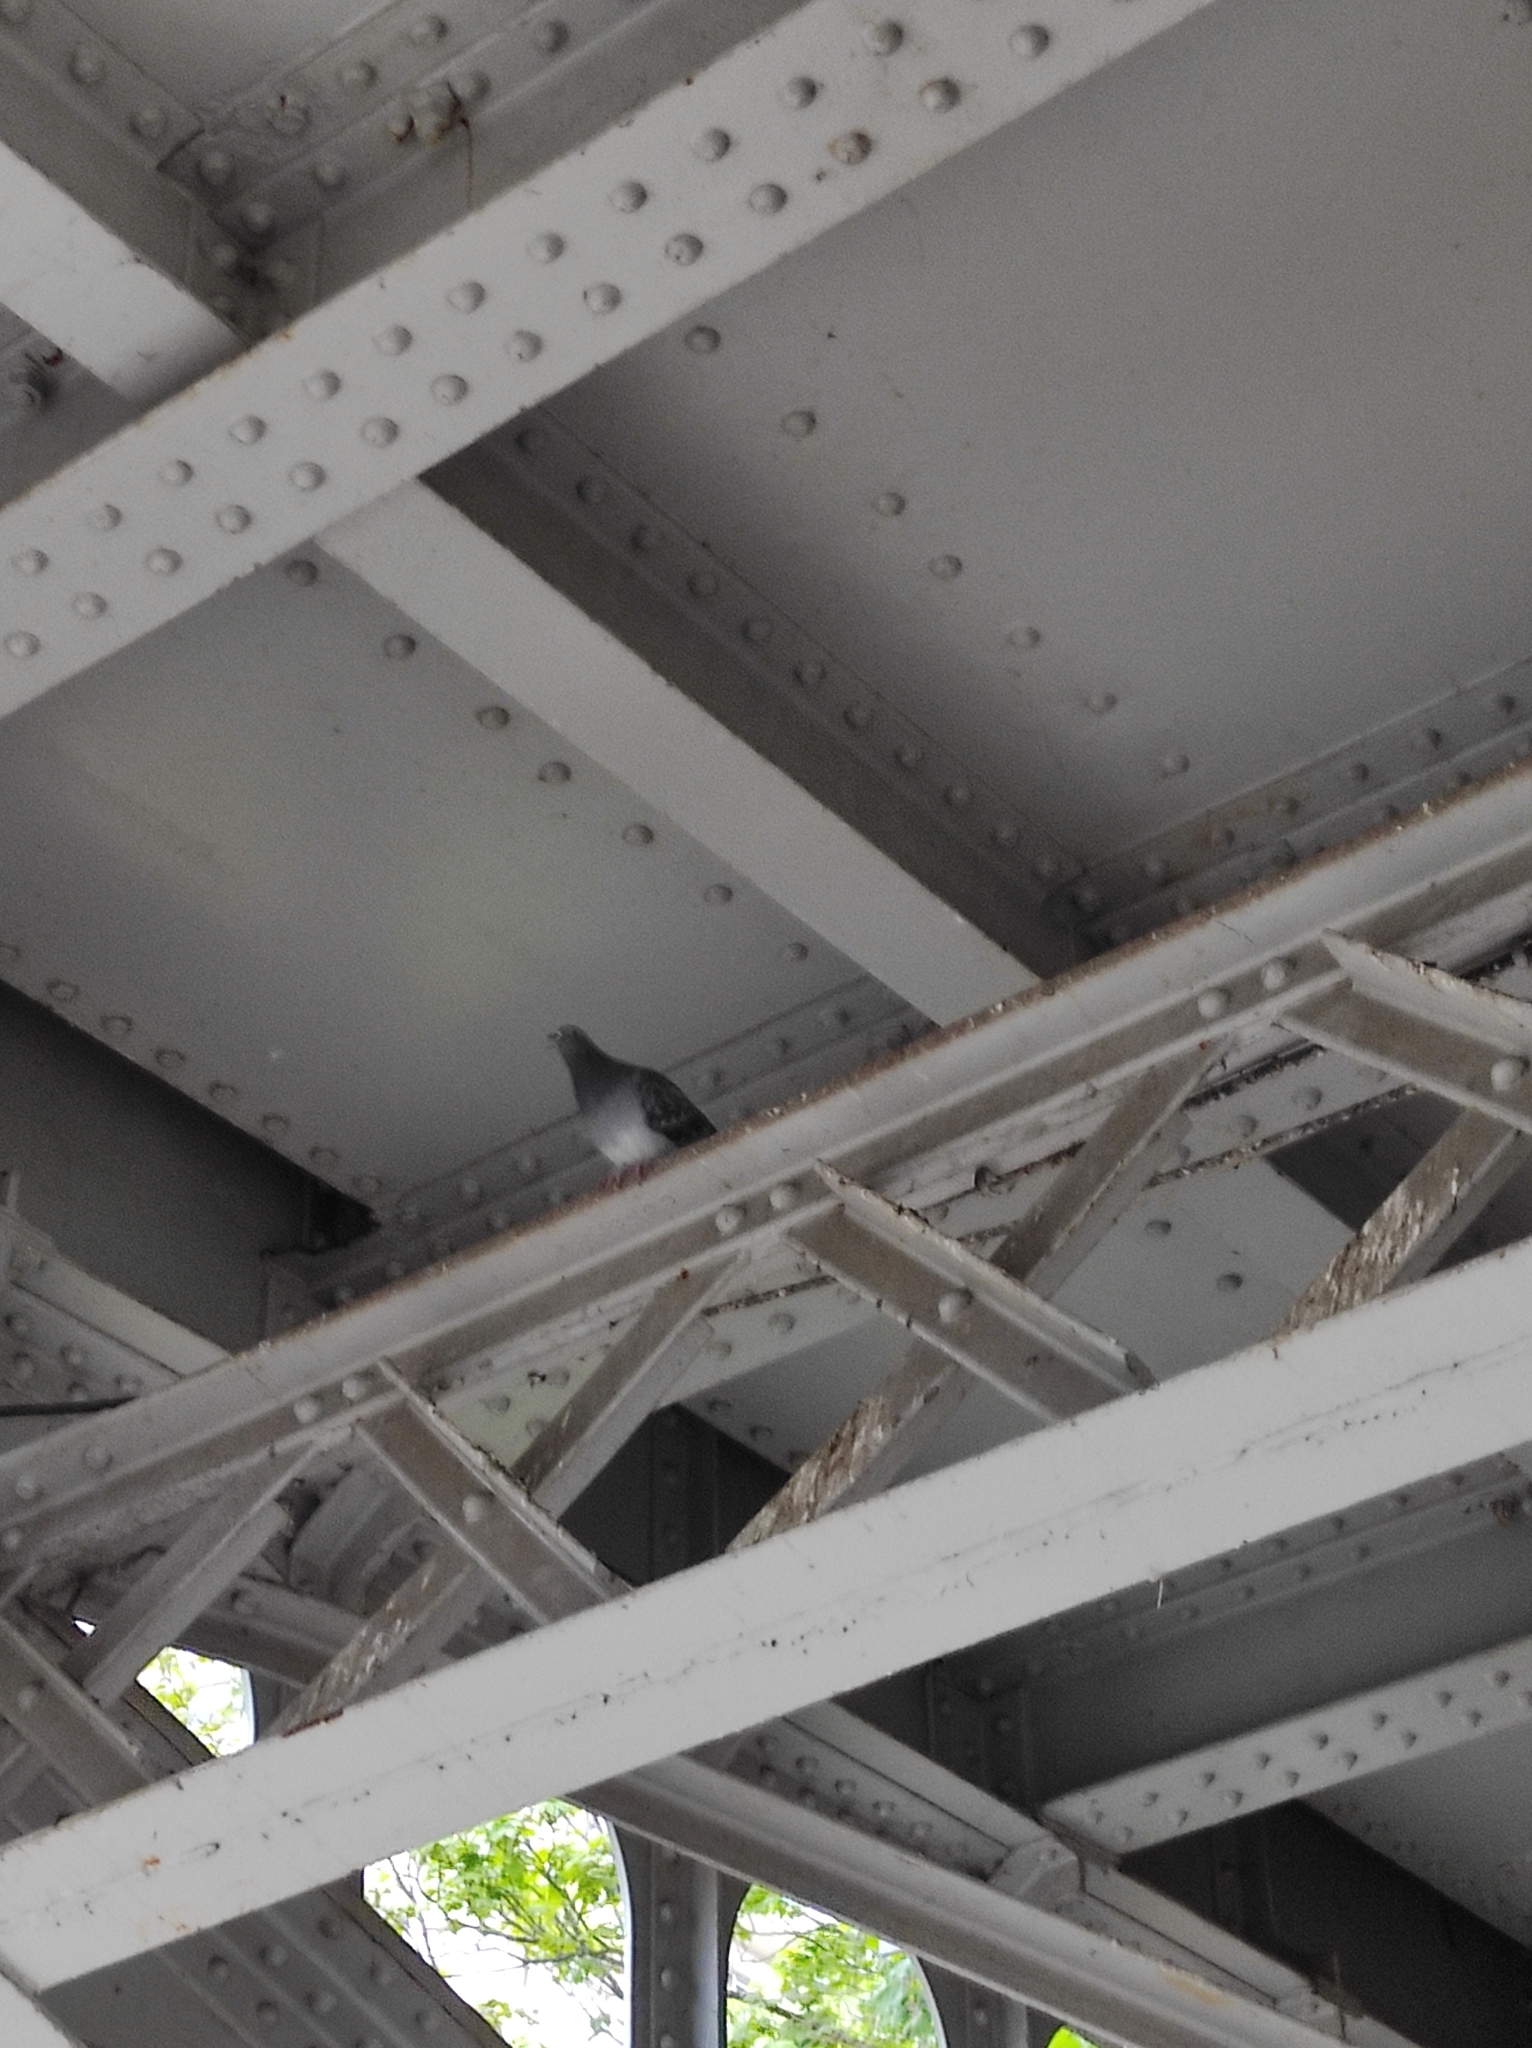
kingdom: Animalia
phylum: Chordata
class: Aves
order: Columbiformes
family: Columbidae
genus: Columba
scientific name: Columba livia
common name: Rock pigeon
